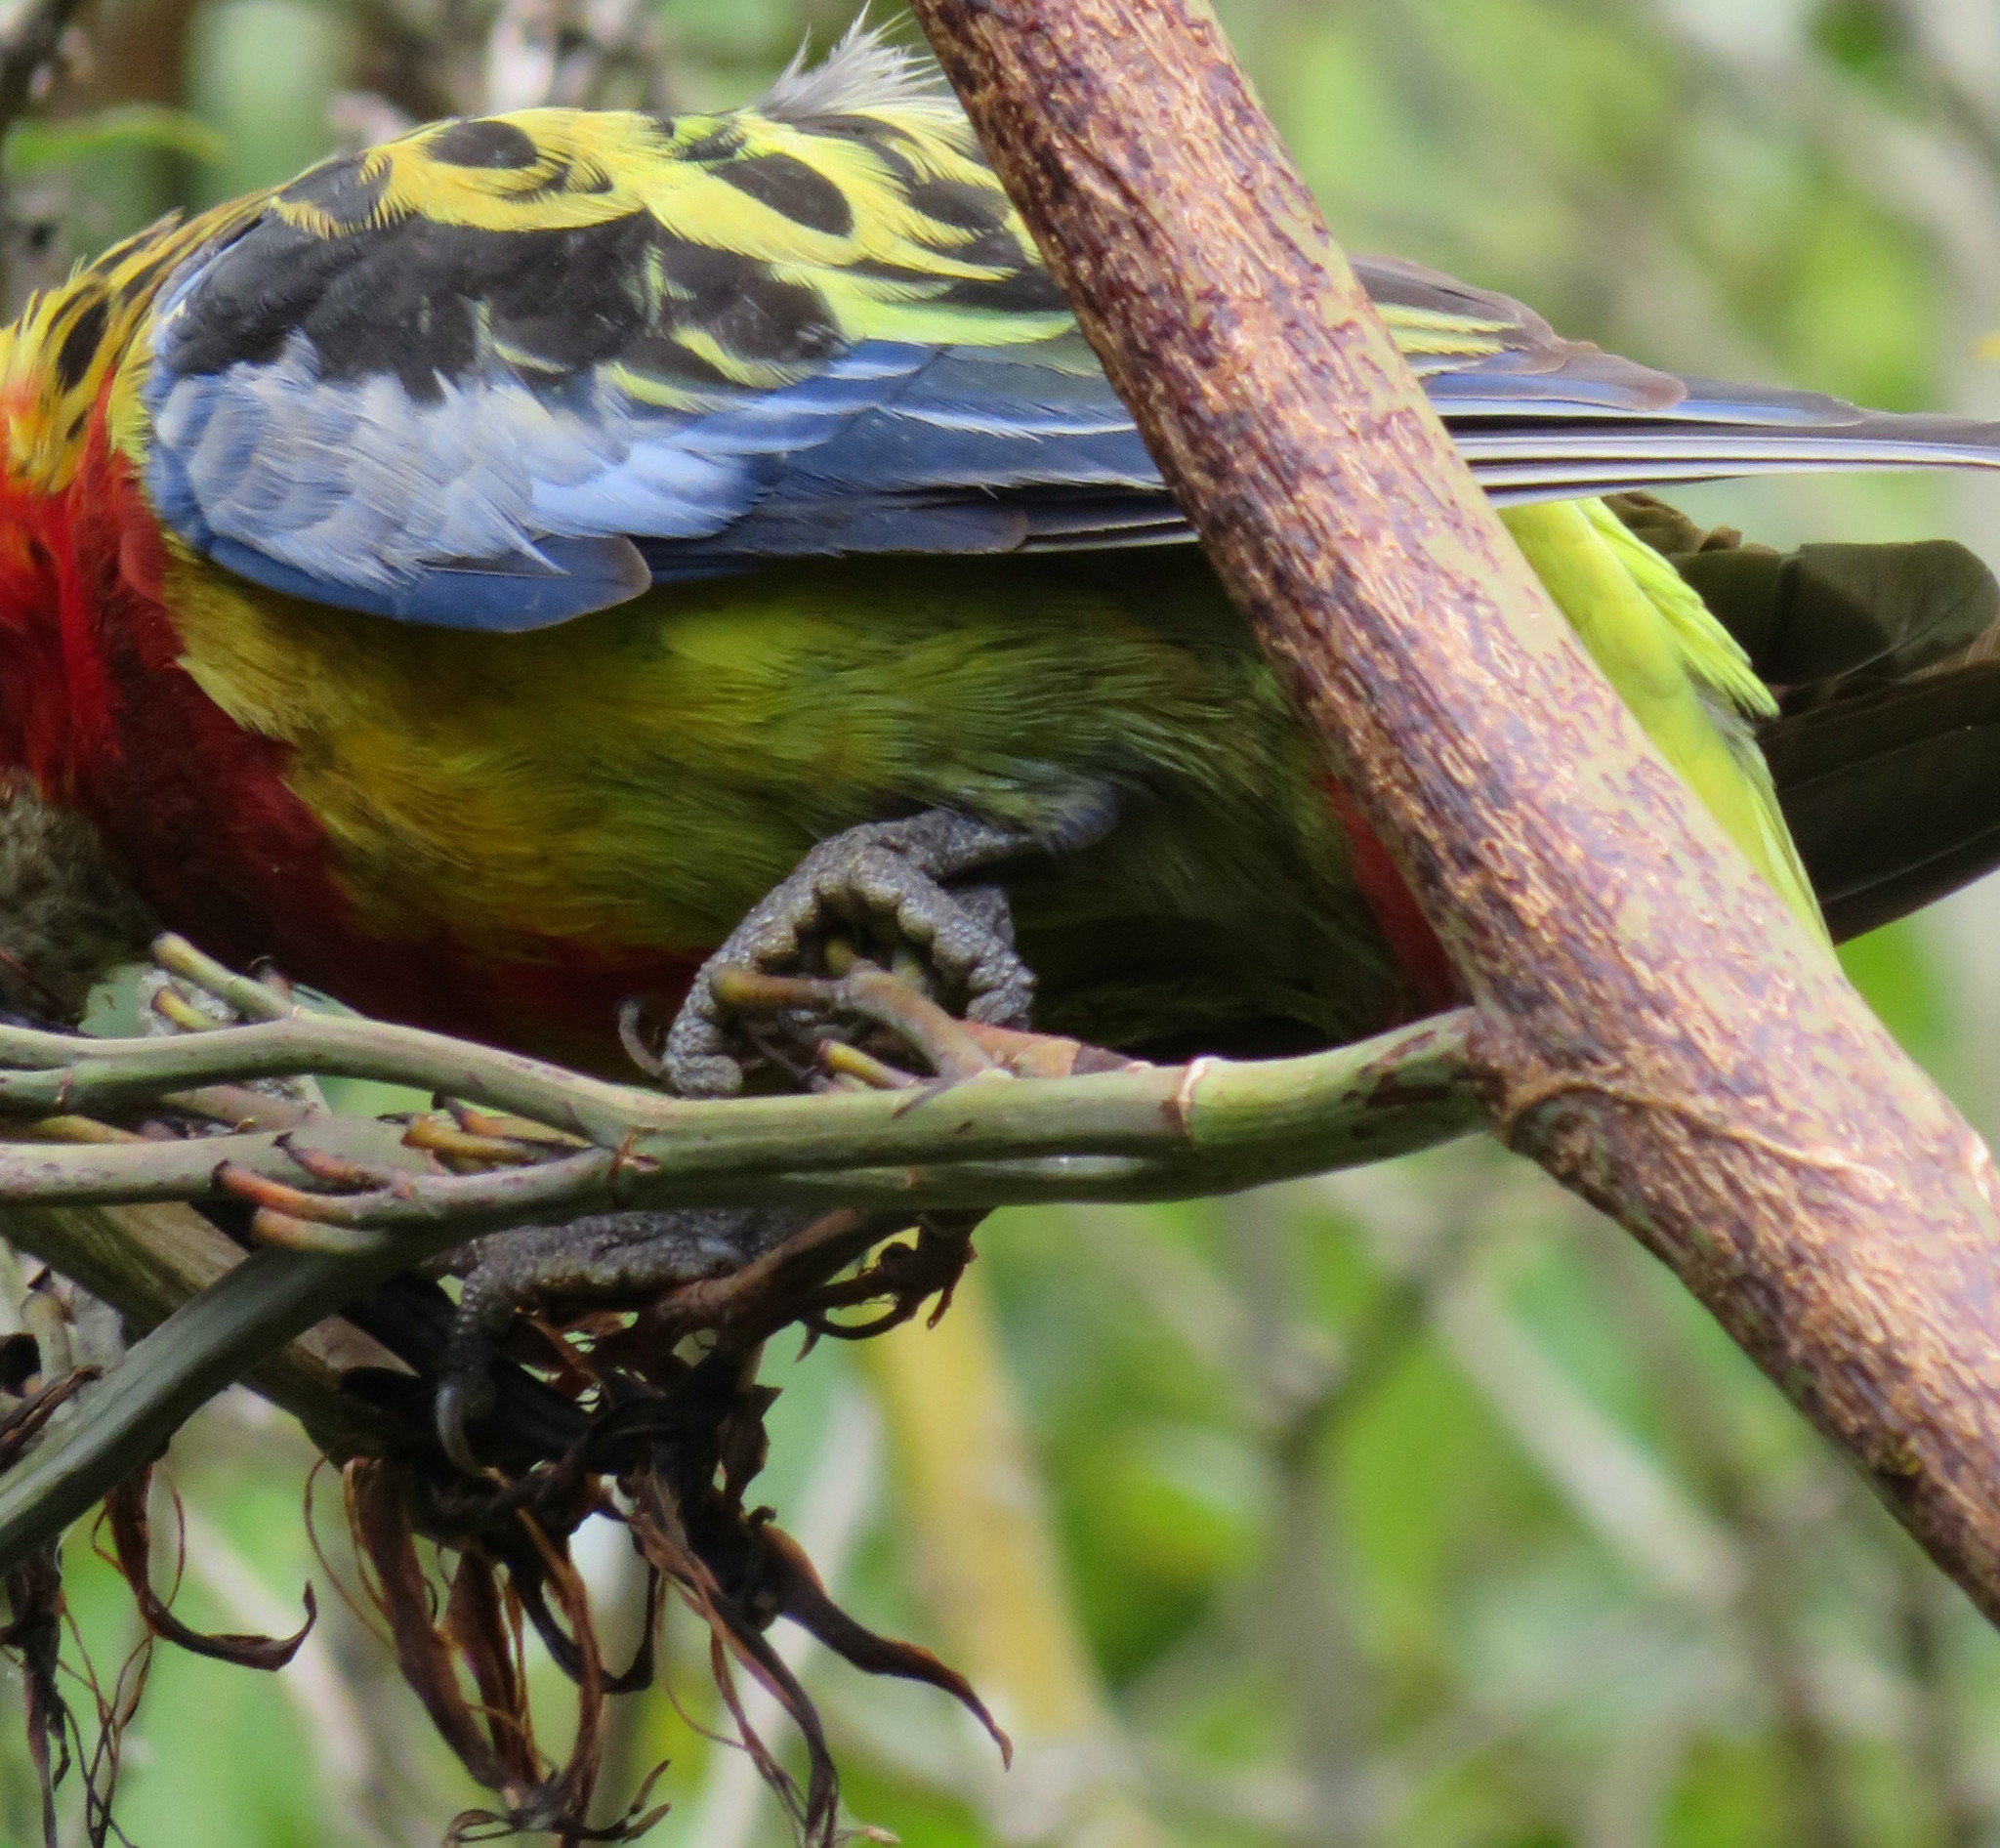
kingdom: Animalia
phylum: Chordata
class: Aves
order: Psittaciformes
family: Psittacidae
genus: Platycercus
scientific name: Platycercus eximius
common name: Eastern rosella
